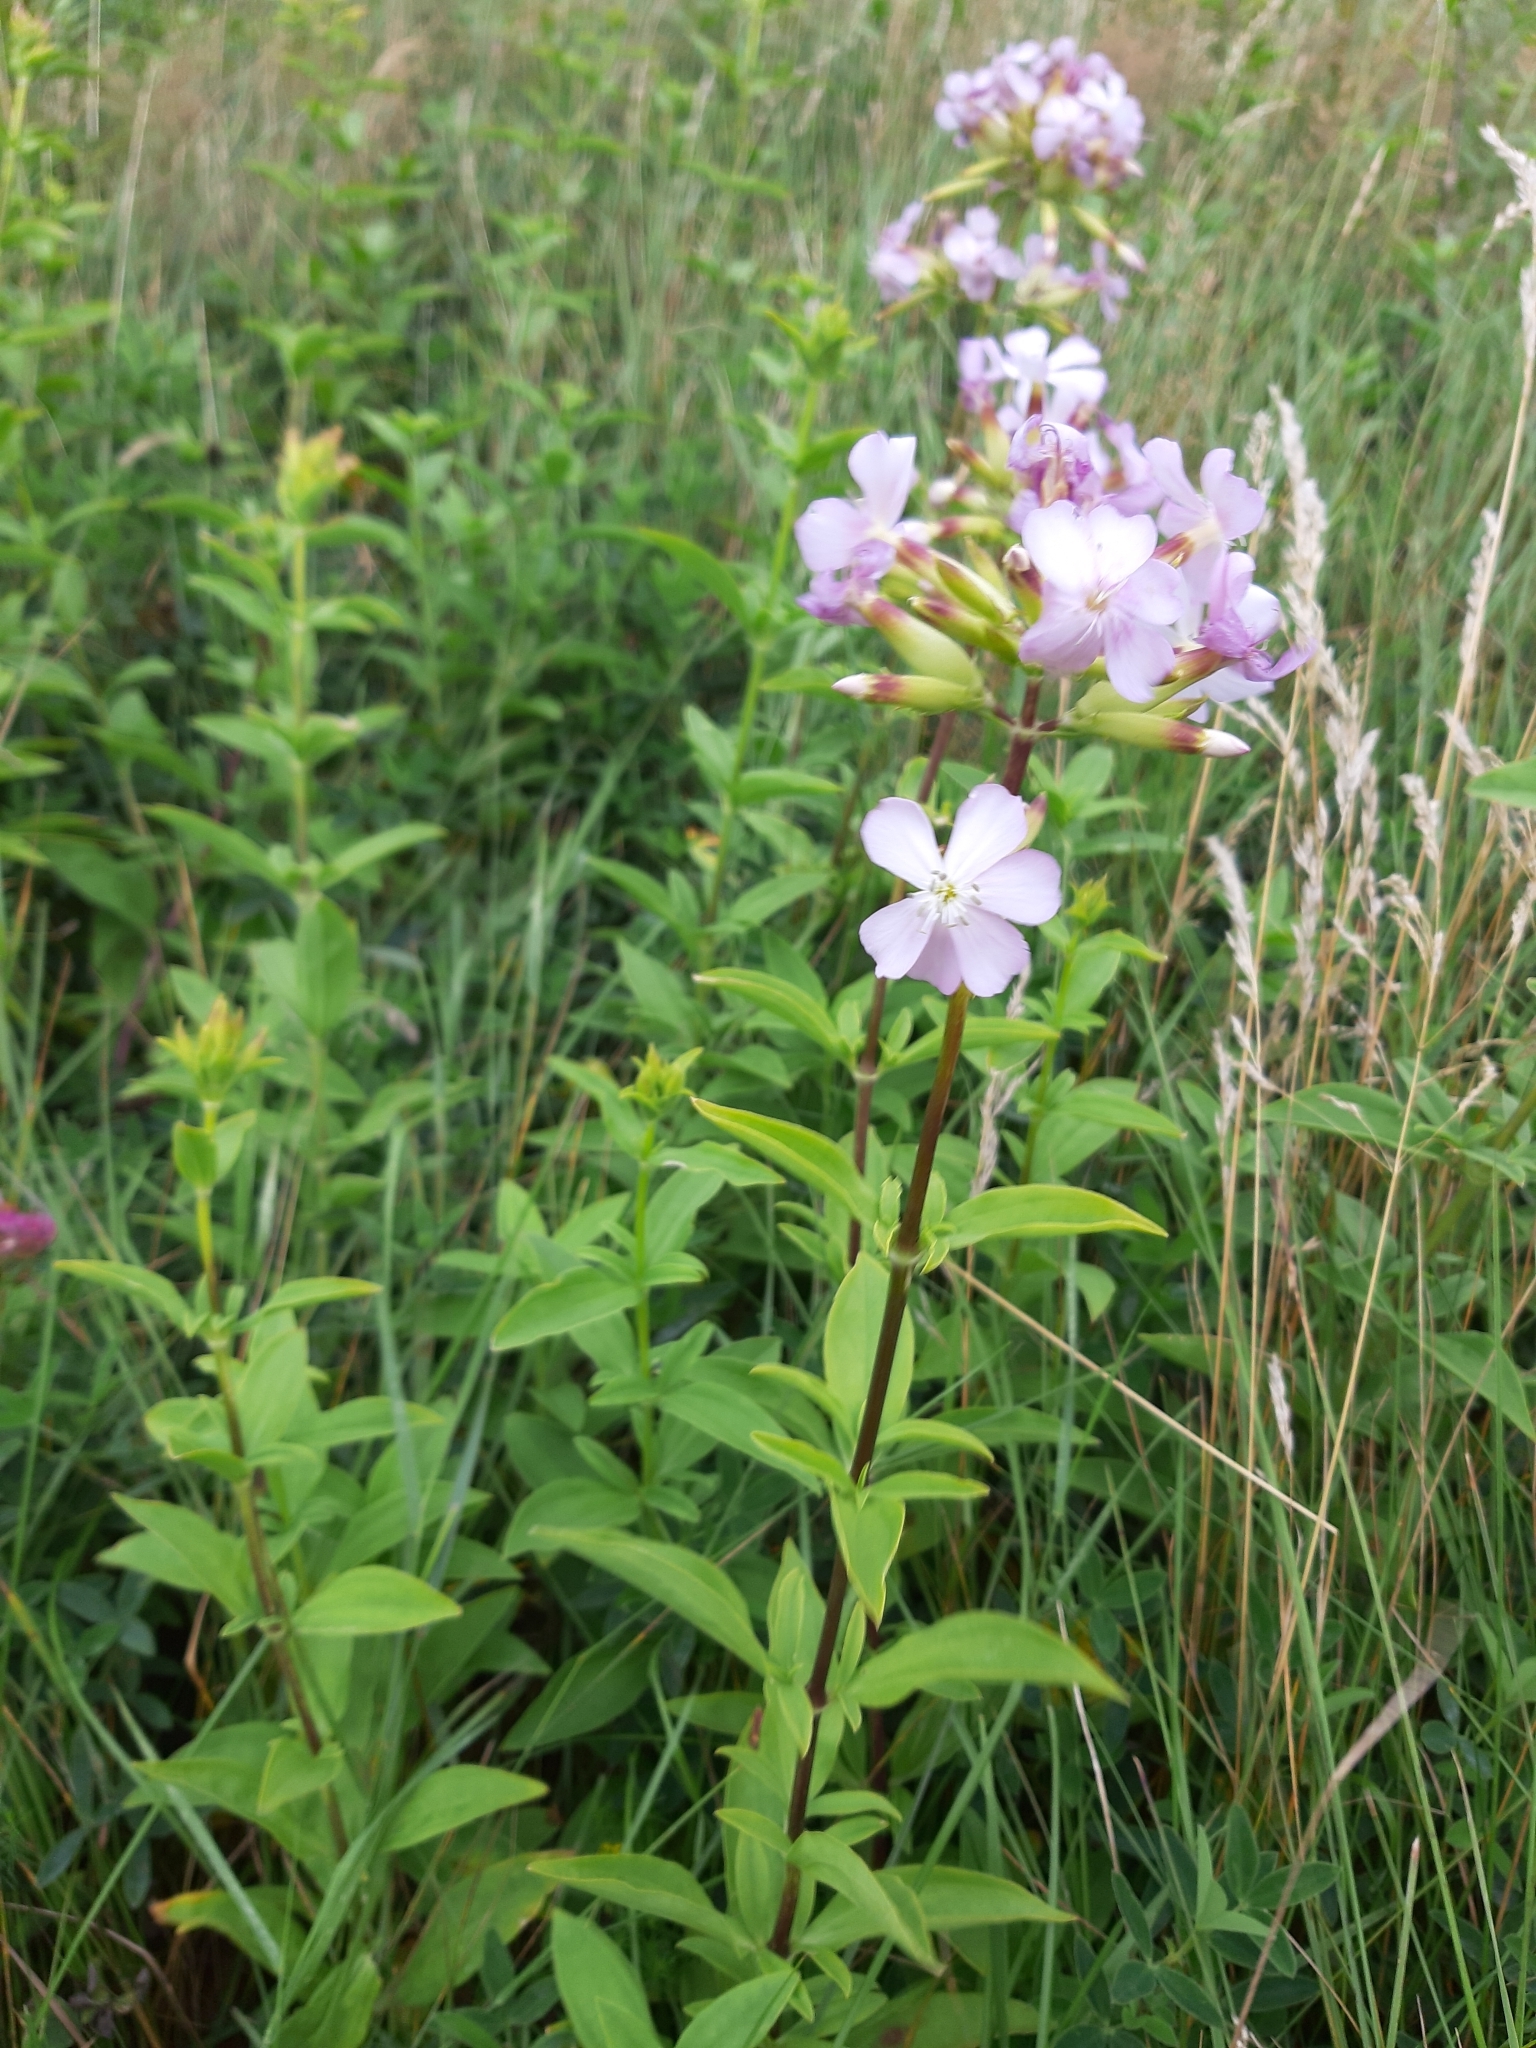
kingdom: Plantae
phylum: Tracheophyta
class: Magnoliopsida
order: Caryophyllales
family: Caryophyllaceae
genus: Saponaria
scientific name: Saponaria officinalis
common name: Soapwort
